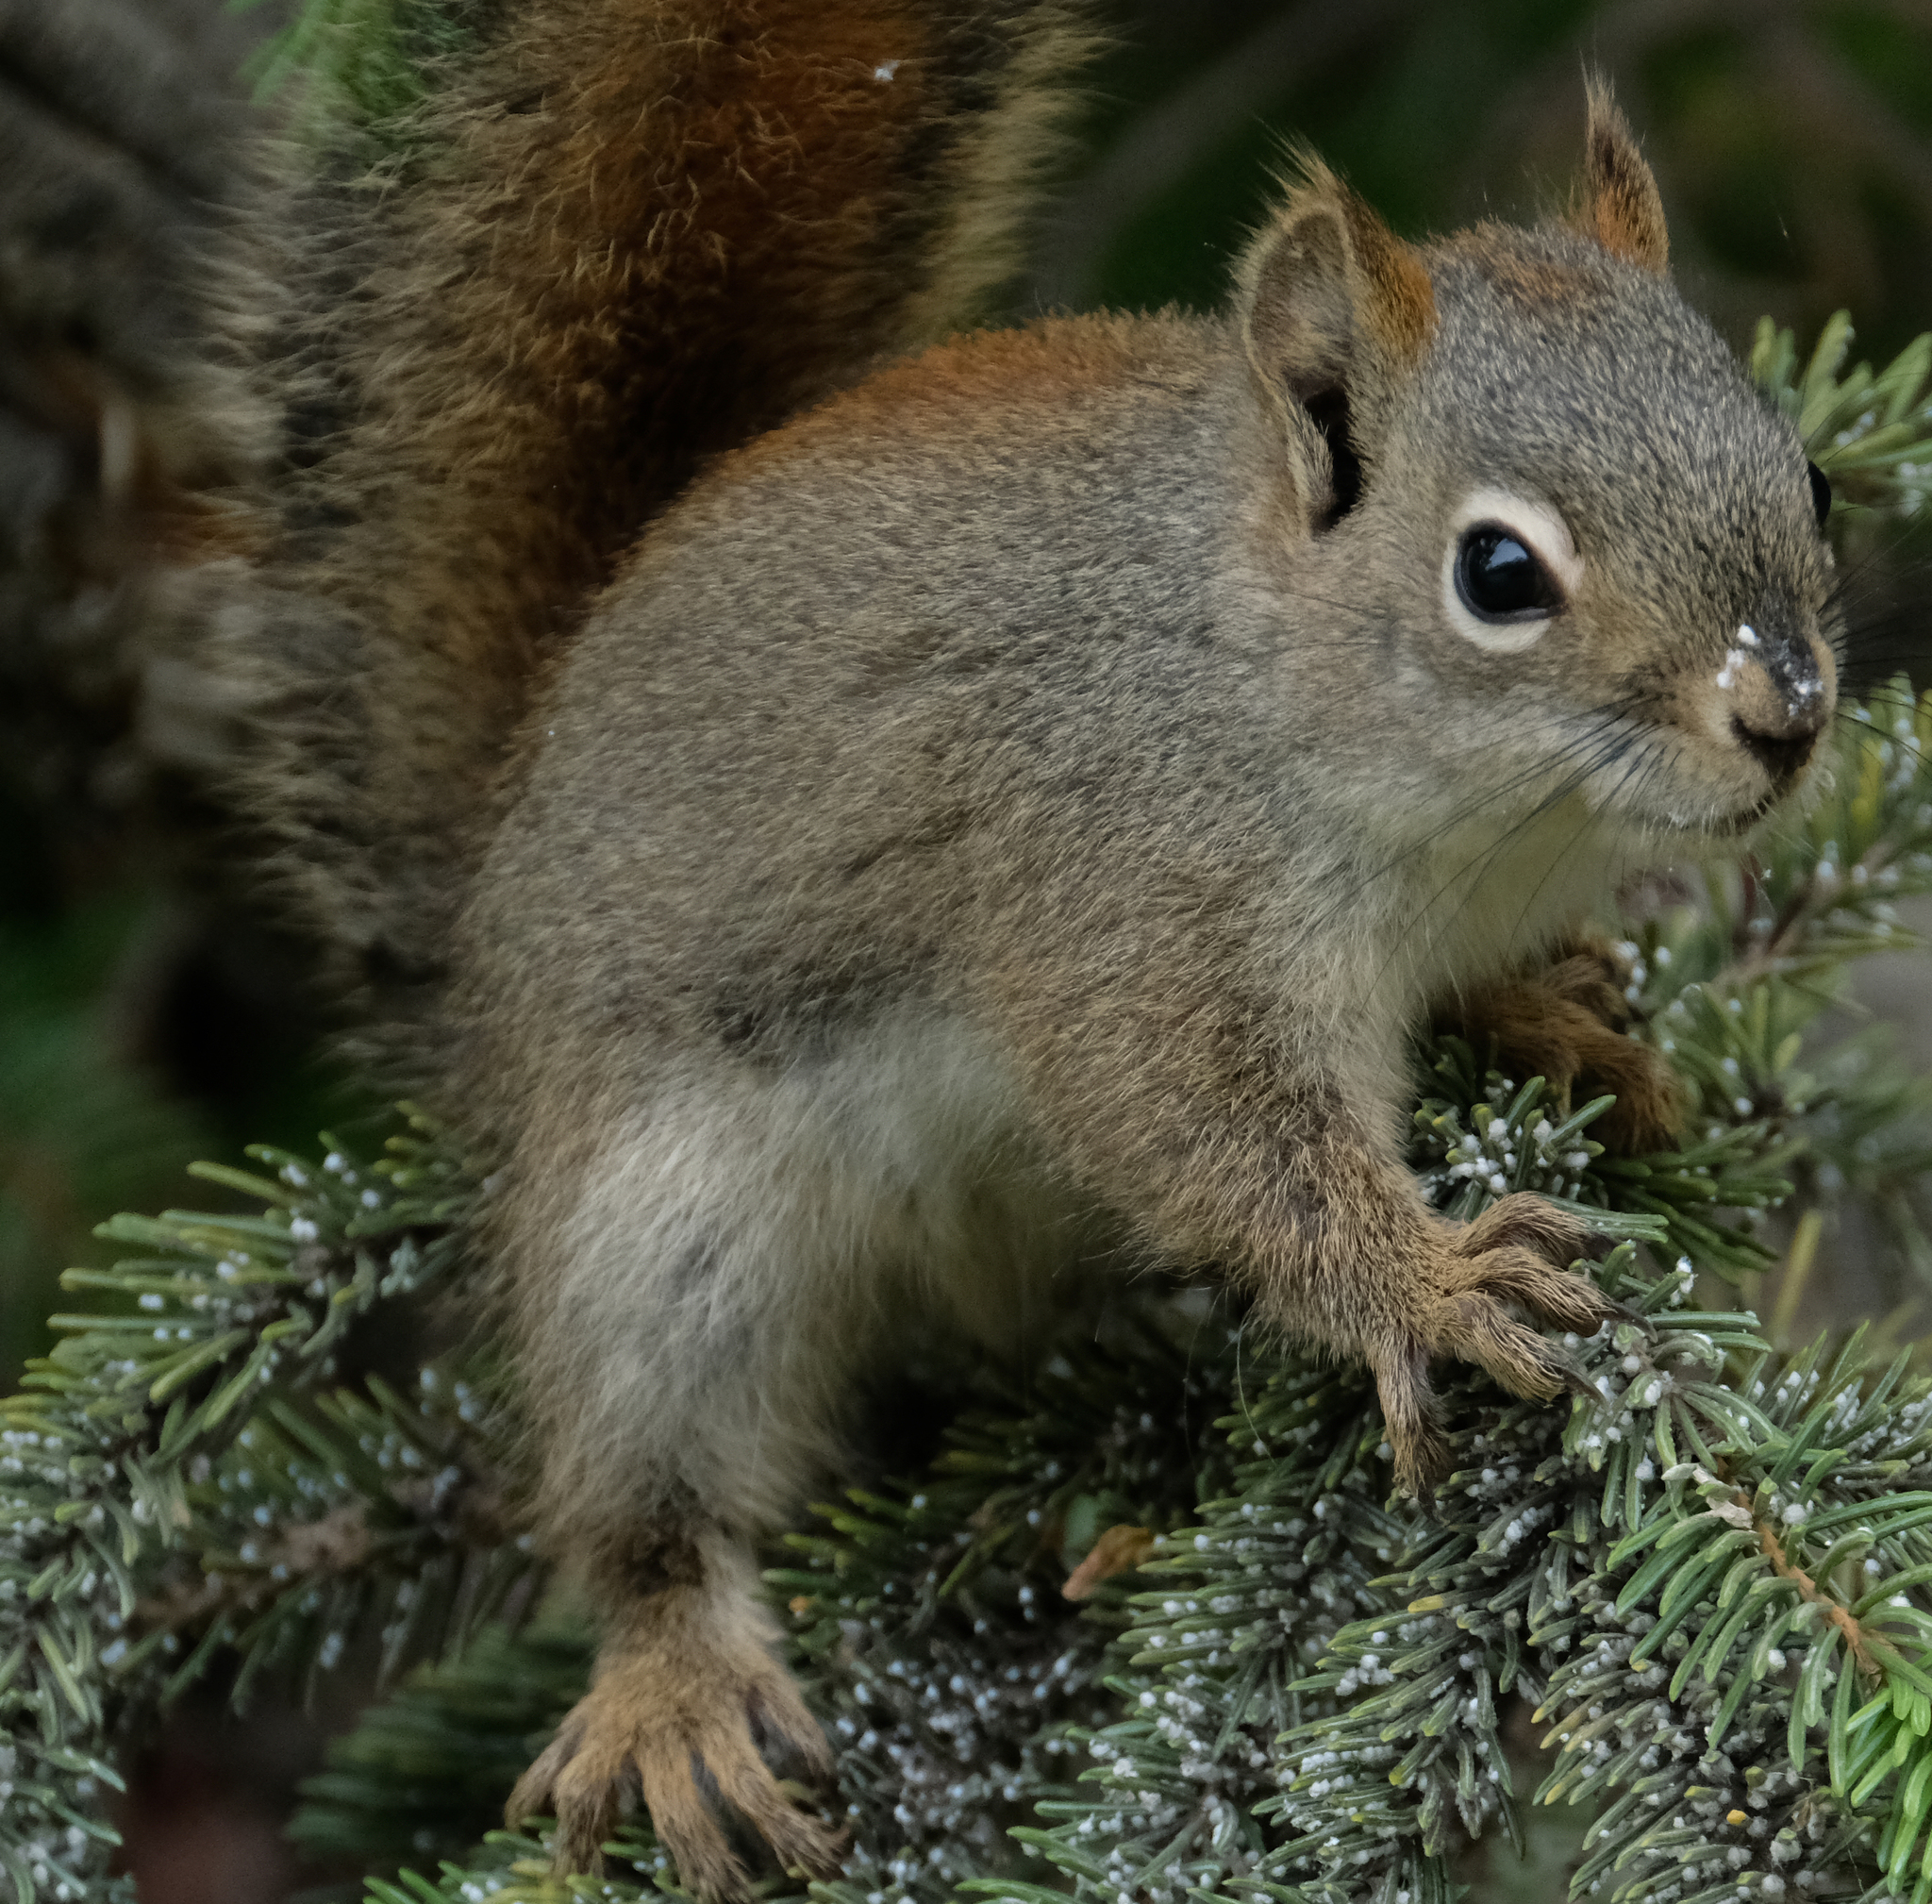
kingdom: Animalia
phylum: Chordata
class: Mammalia
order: Rodentia
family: Sciuridae
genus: Tamiasciurus
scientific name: Tamiasciurus hudsonicus
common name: Red squirrel
